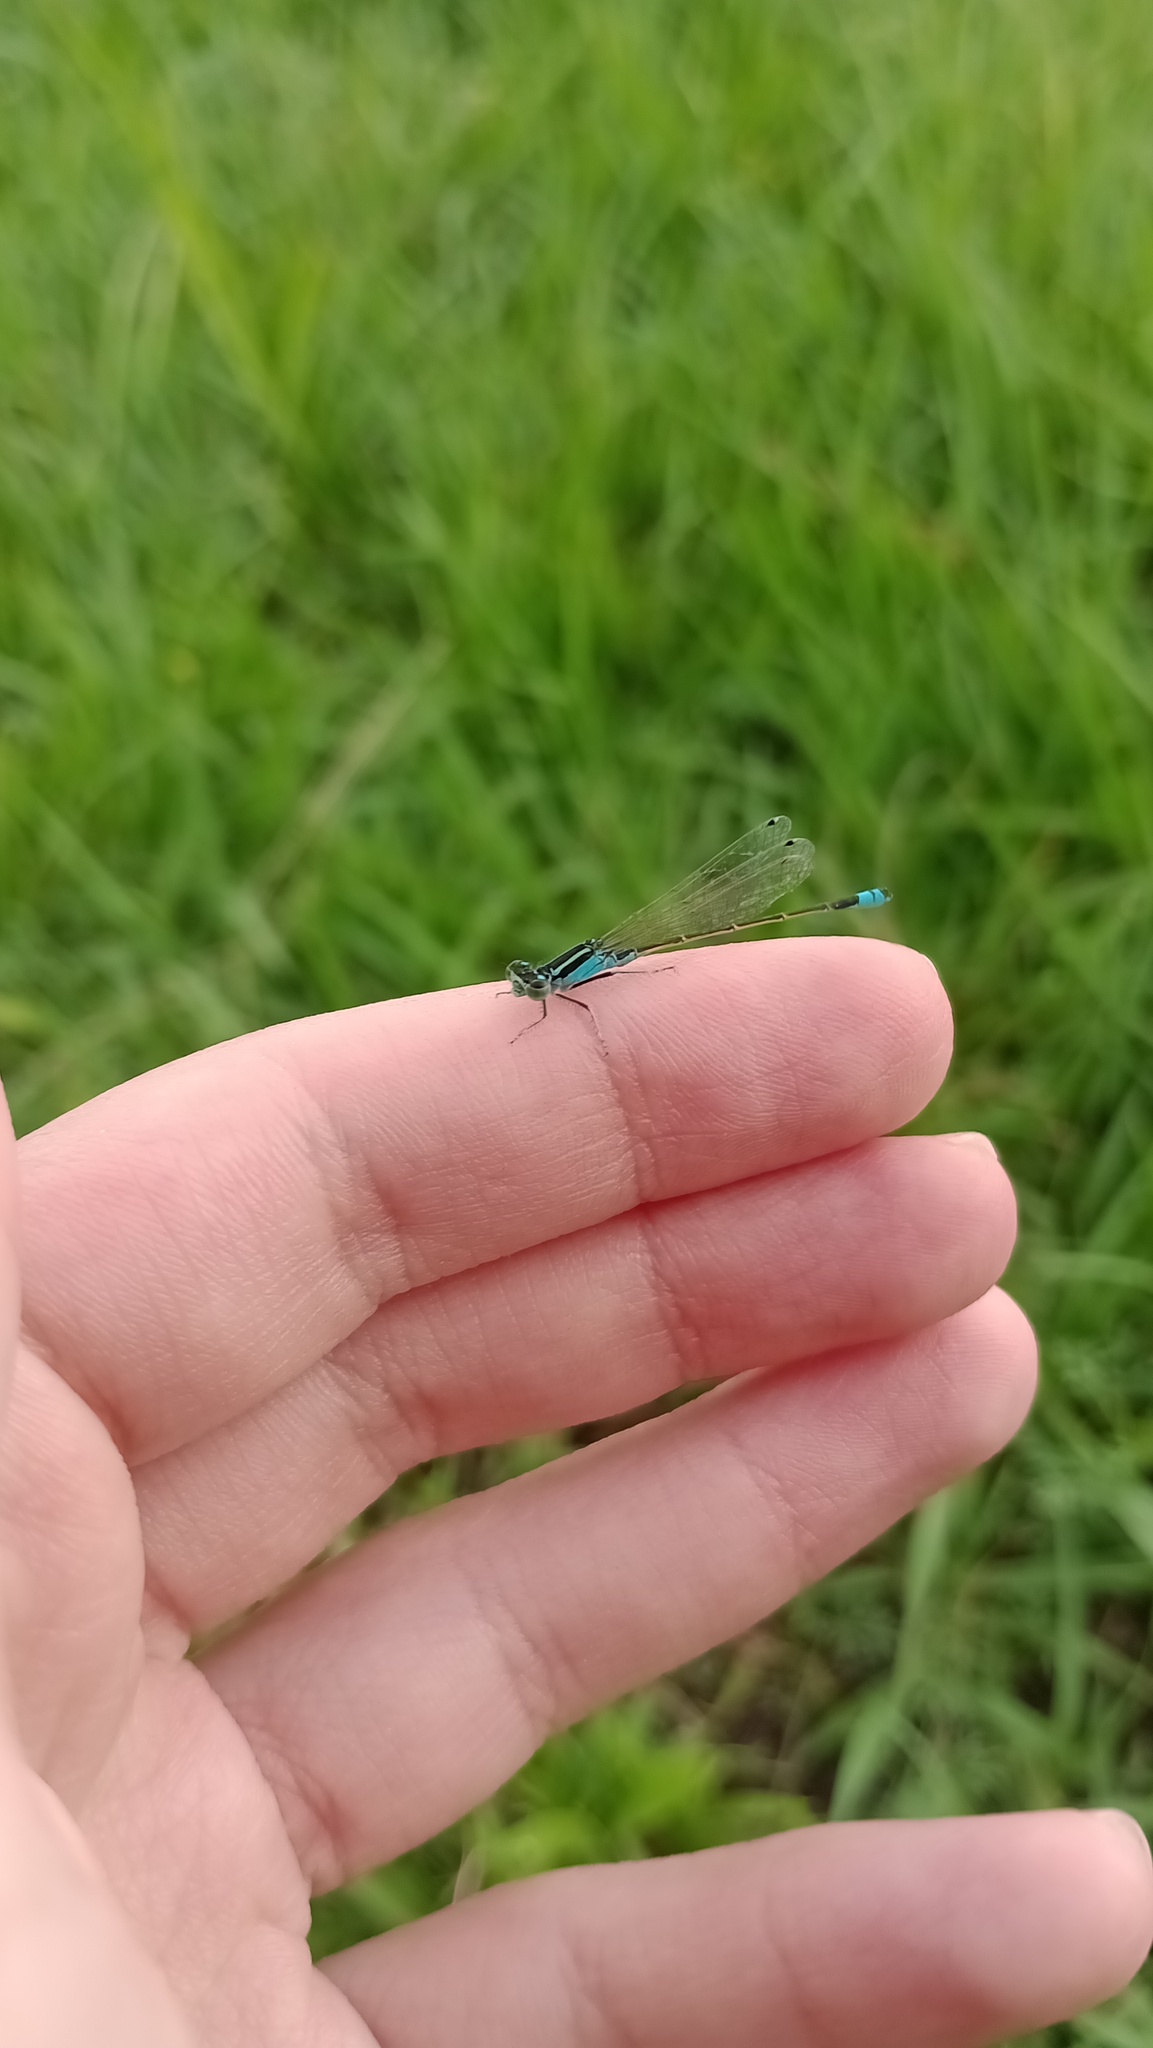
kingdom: Animalia
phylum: Arthropoda
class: Insecta
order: Odonata
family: Coenagrionidae
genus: Ischnura
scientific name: Ischnura fluviatilis
